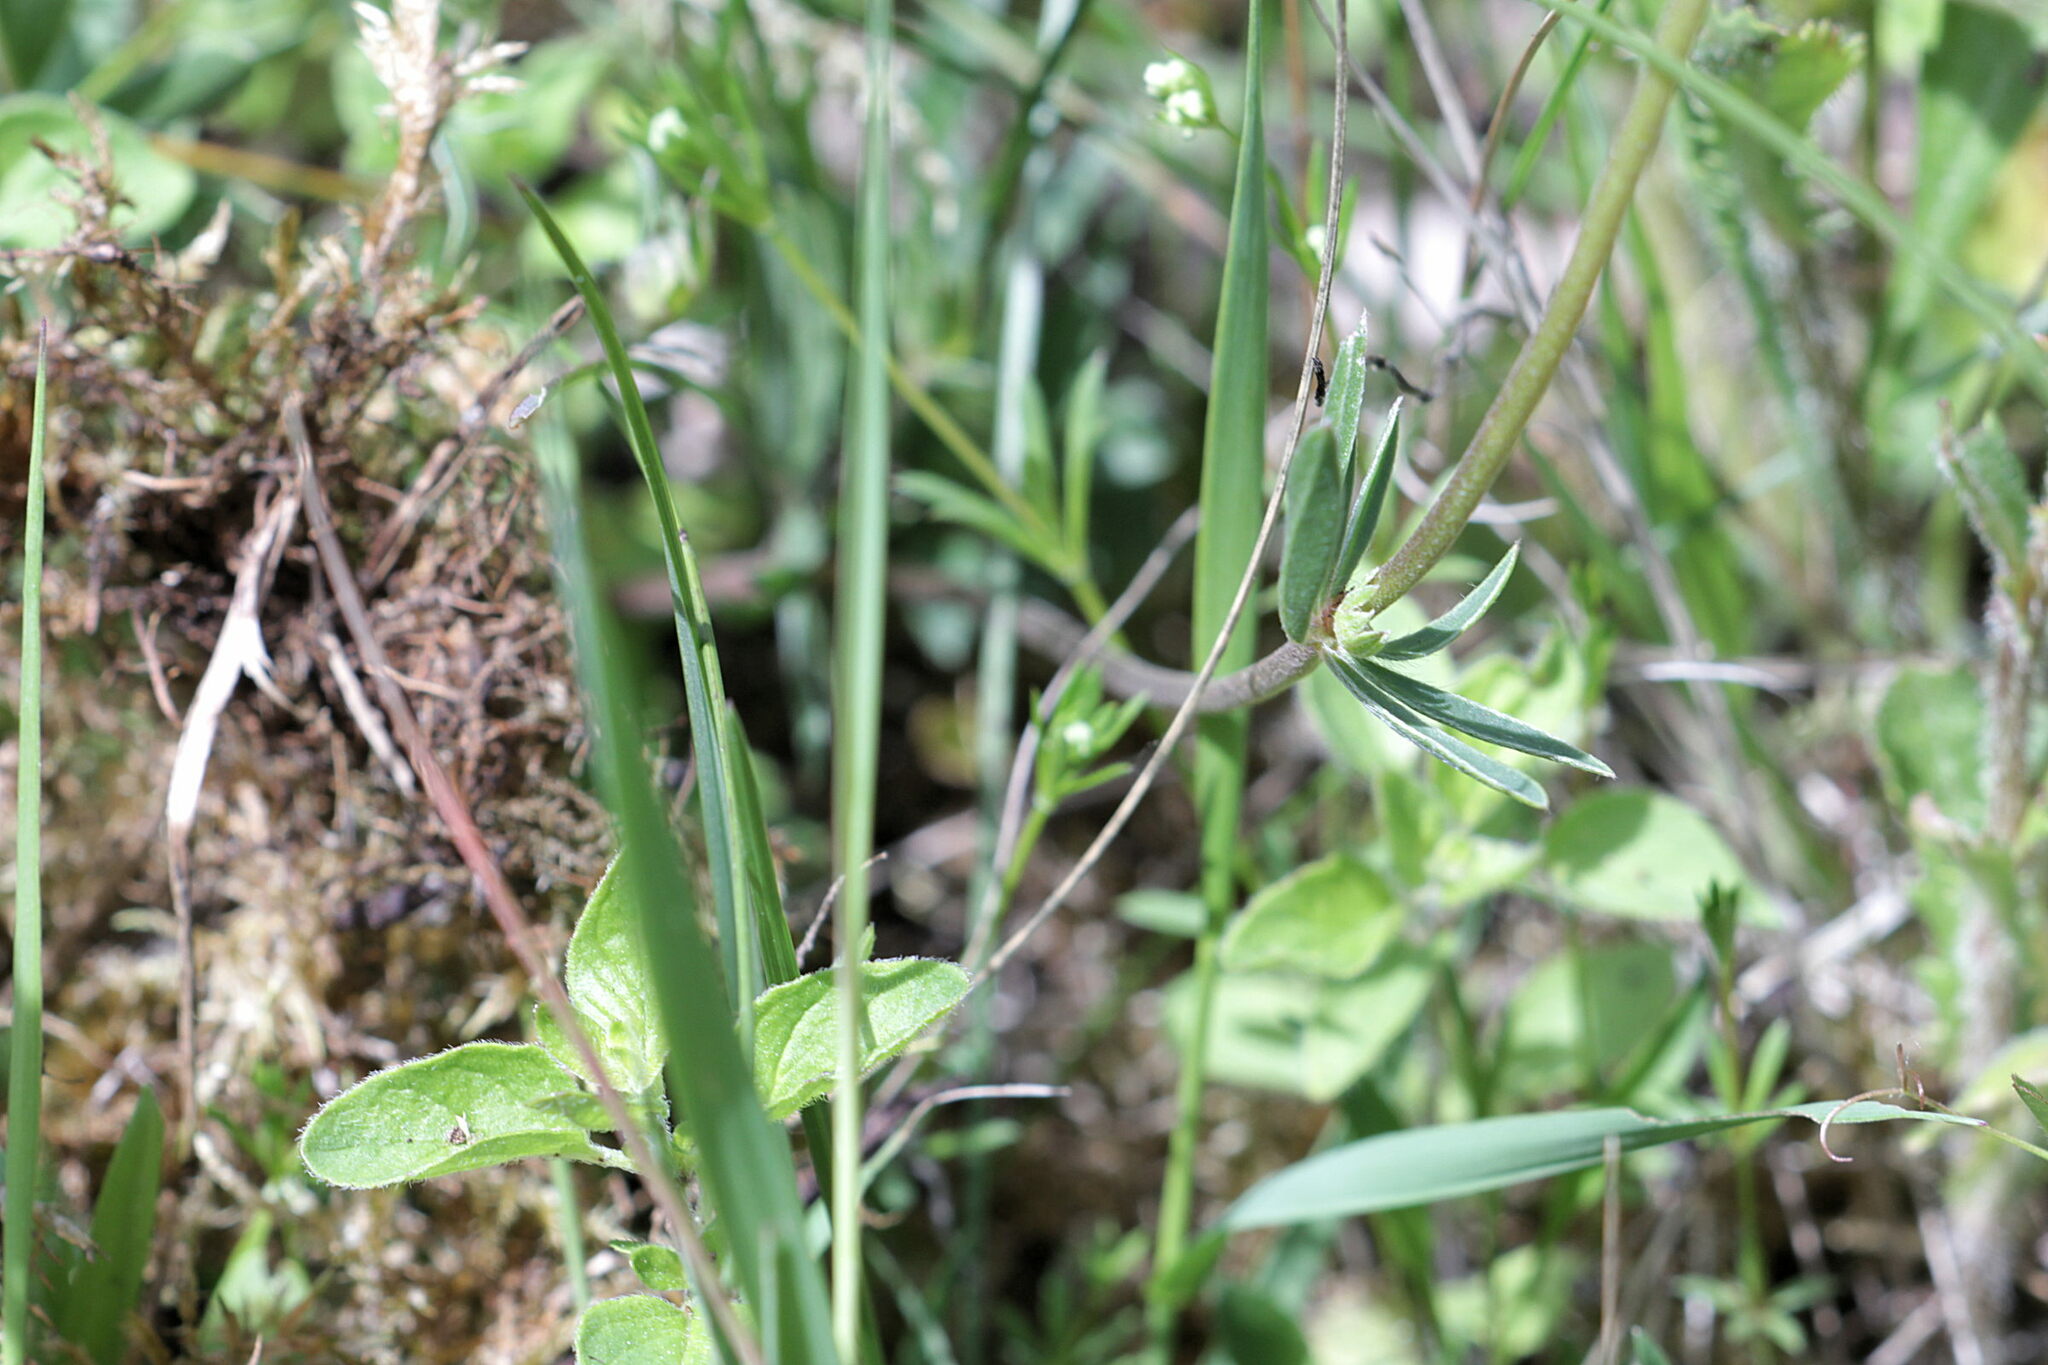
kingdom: Plantae
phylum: Tracheophyta
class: Magnoliopsida
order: Fabales
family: Fabaceae
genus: Anthyllis
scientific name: Anthyllis vulneraria
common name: Kidney vetch
